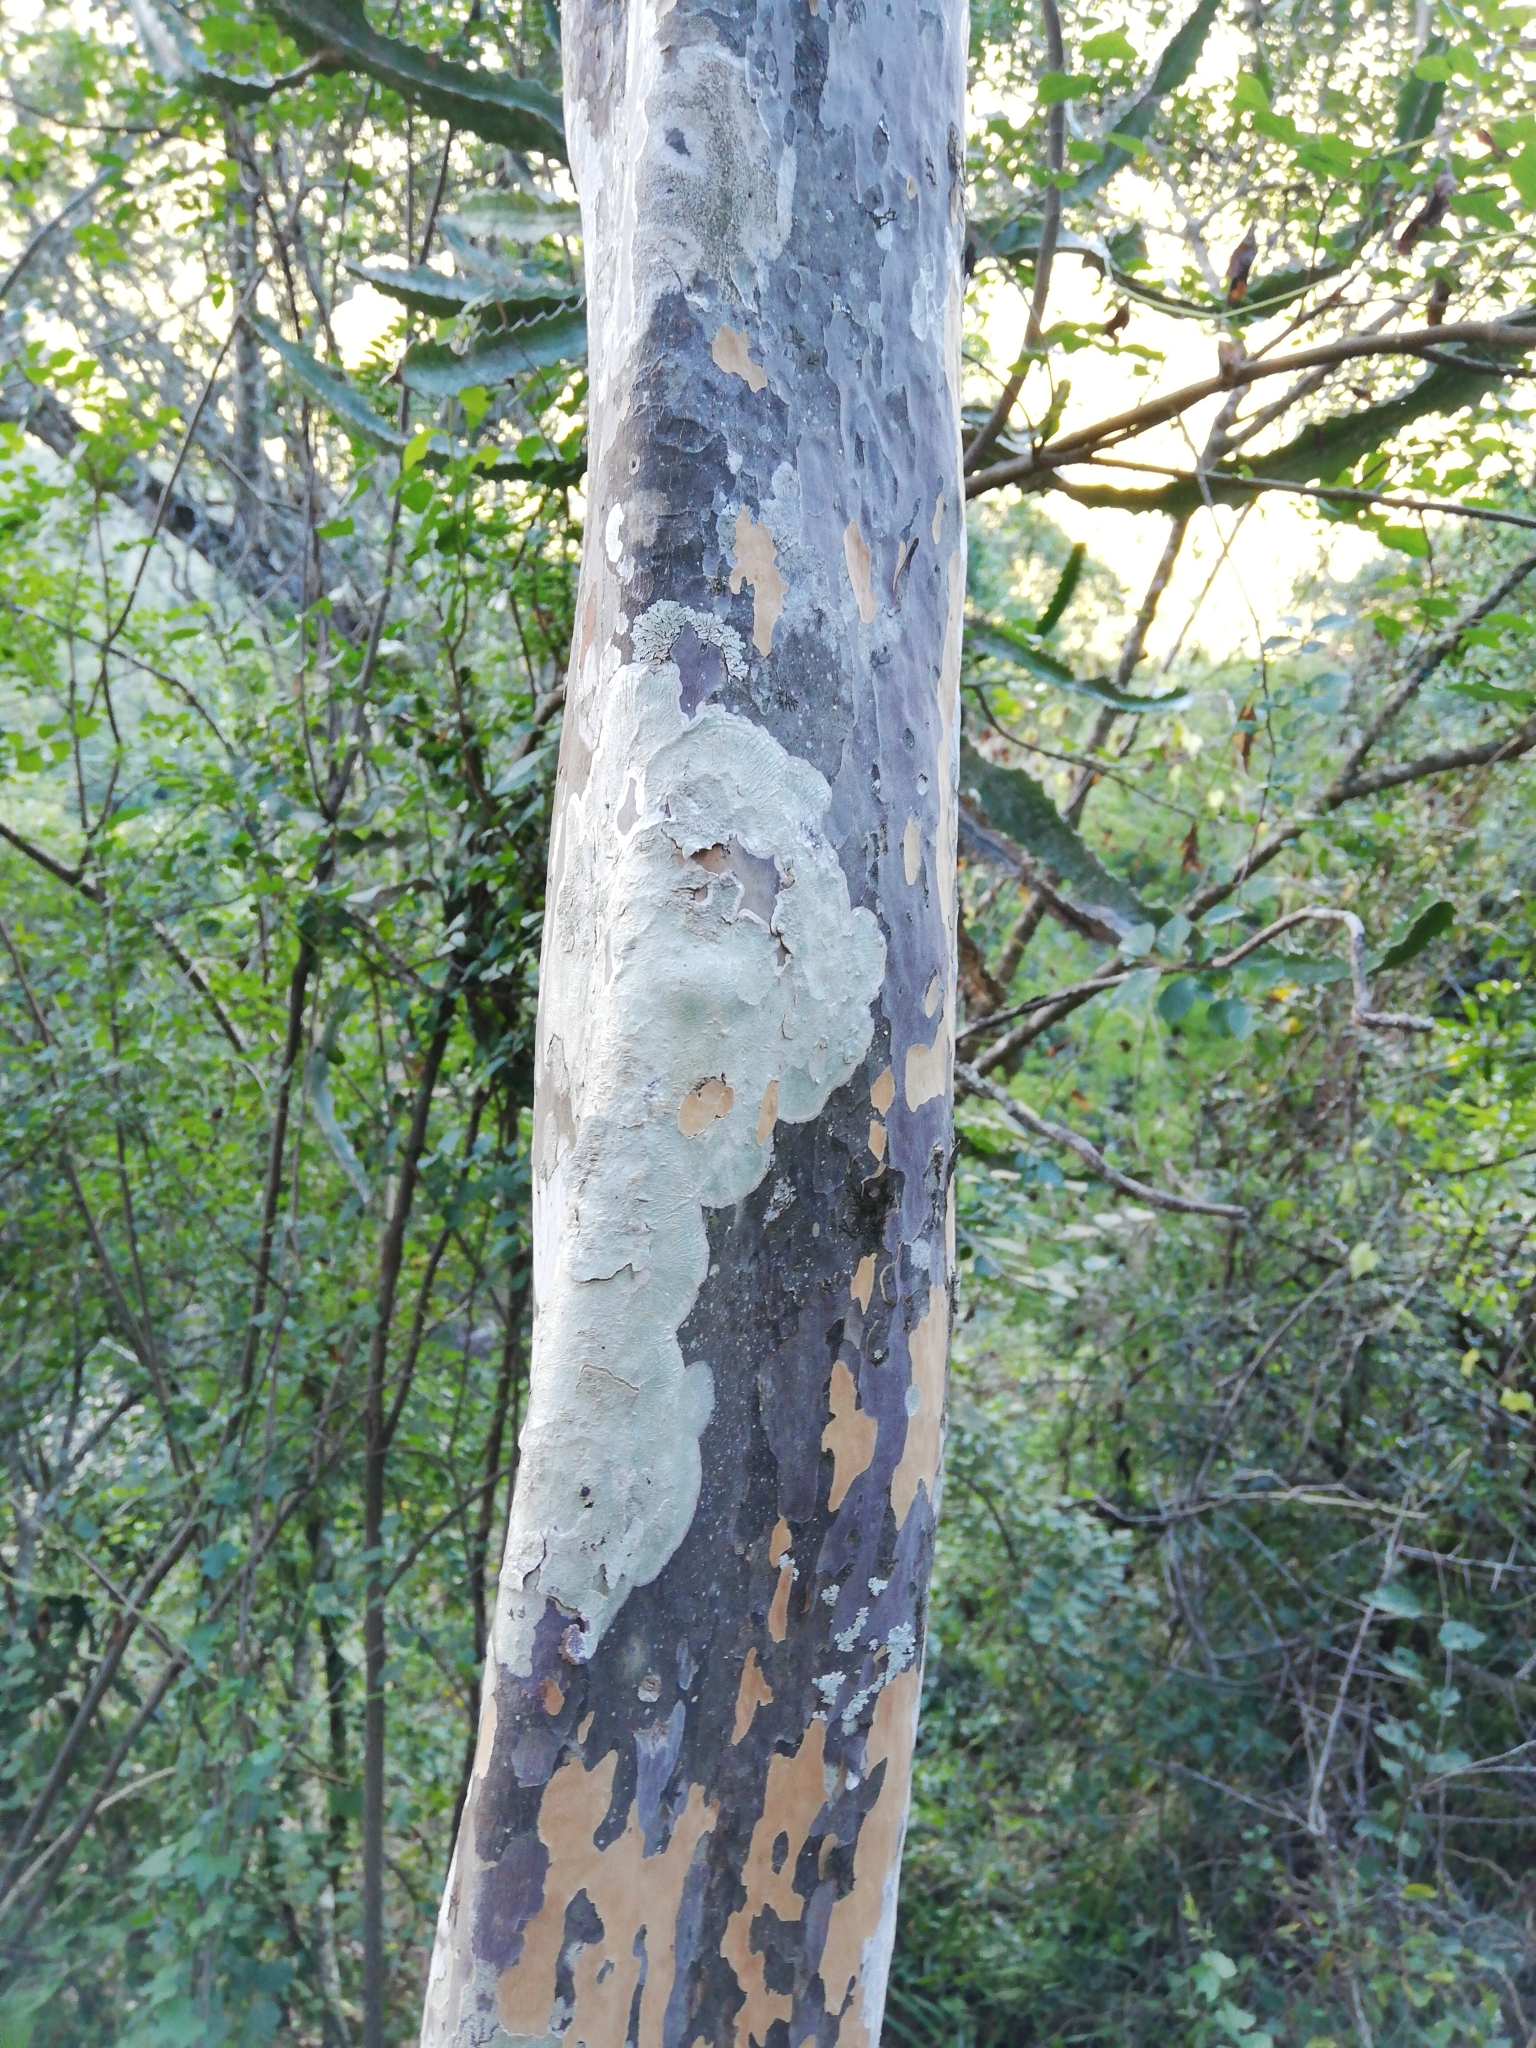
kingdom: Plantae
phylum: Tracheophyta
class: Magnoliopsida
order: Malpighiales
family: Ochnaceae
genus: Ochna
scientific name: Ochna arborea
